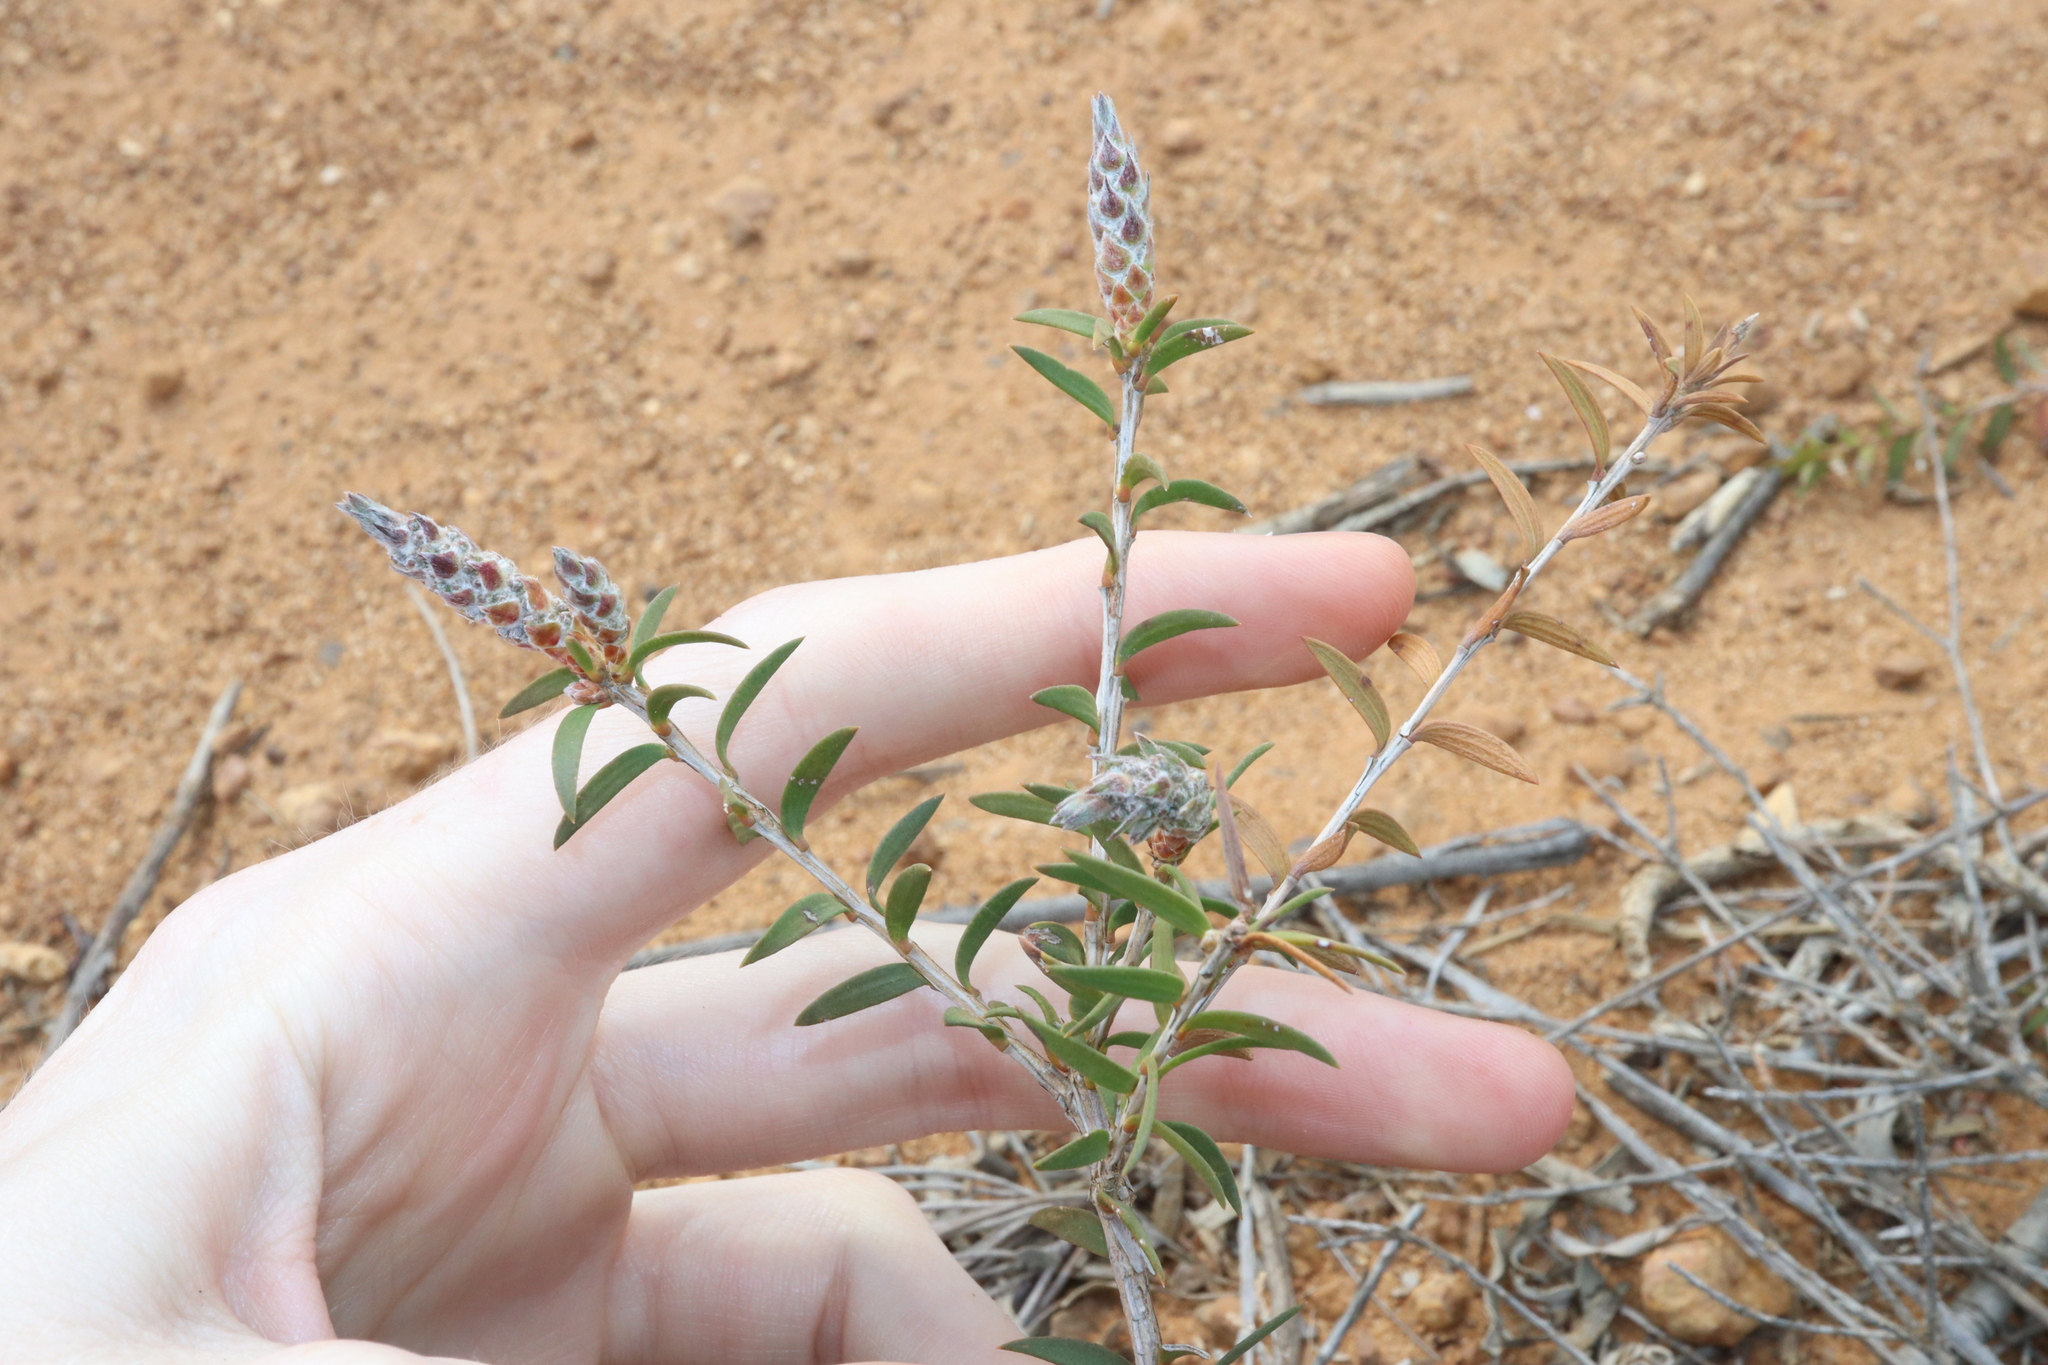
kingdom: Plantae
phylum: Tracheophyta
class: Magnoliopsida
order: Myrtales
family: Myrtaceae
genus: Melaleuca
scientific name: Melaleuca striata
